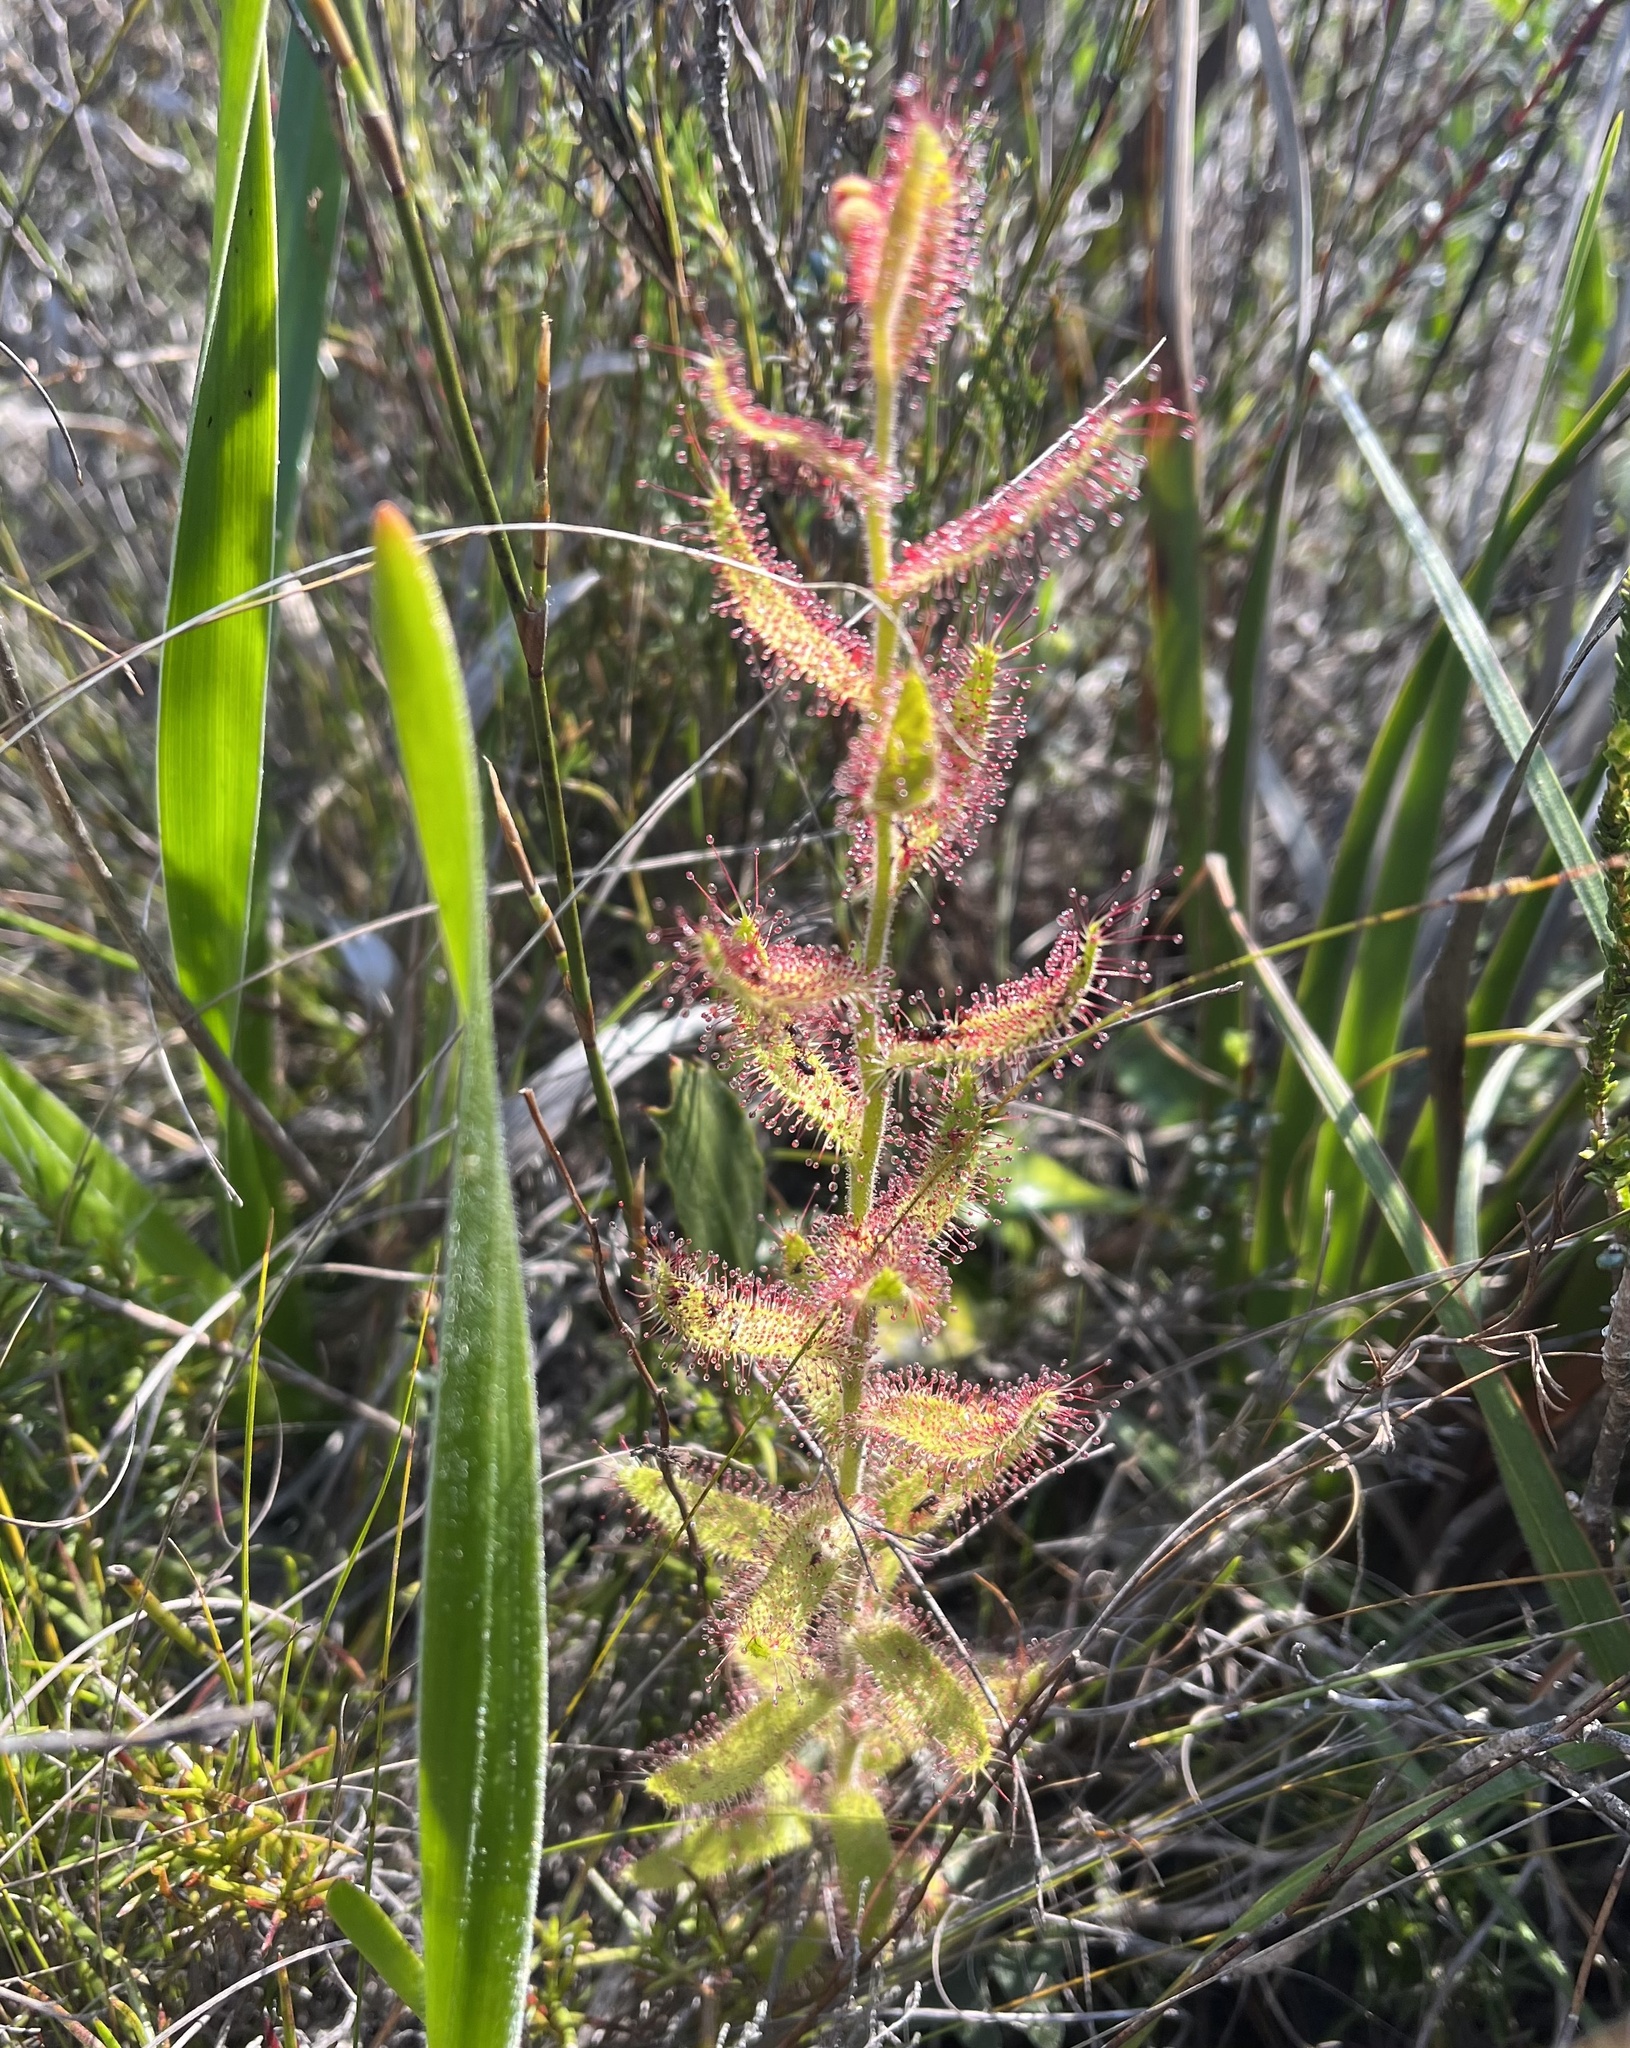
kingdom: Plantae
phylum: Tracheophyta
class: Magnoliopsida
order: Caryophyllales
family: Droseraceae
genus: Drosera
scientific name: Drosera cistiflora
